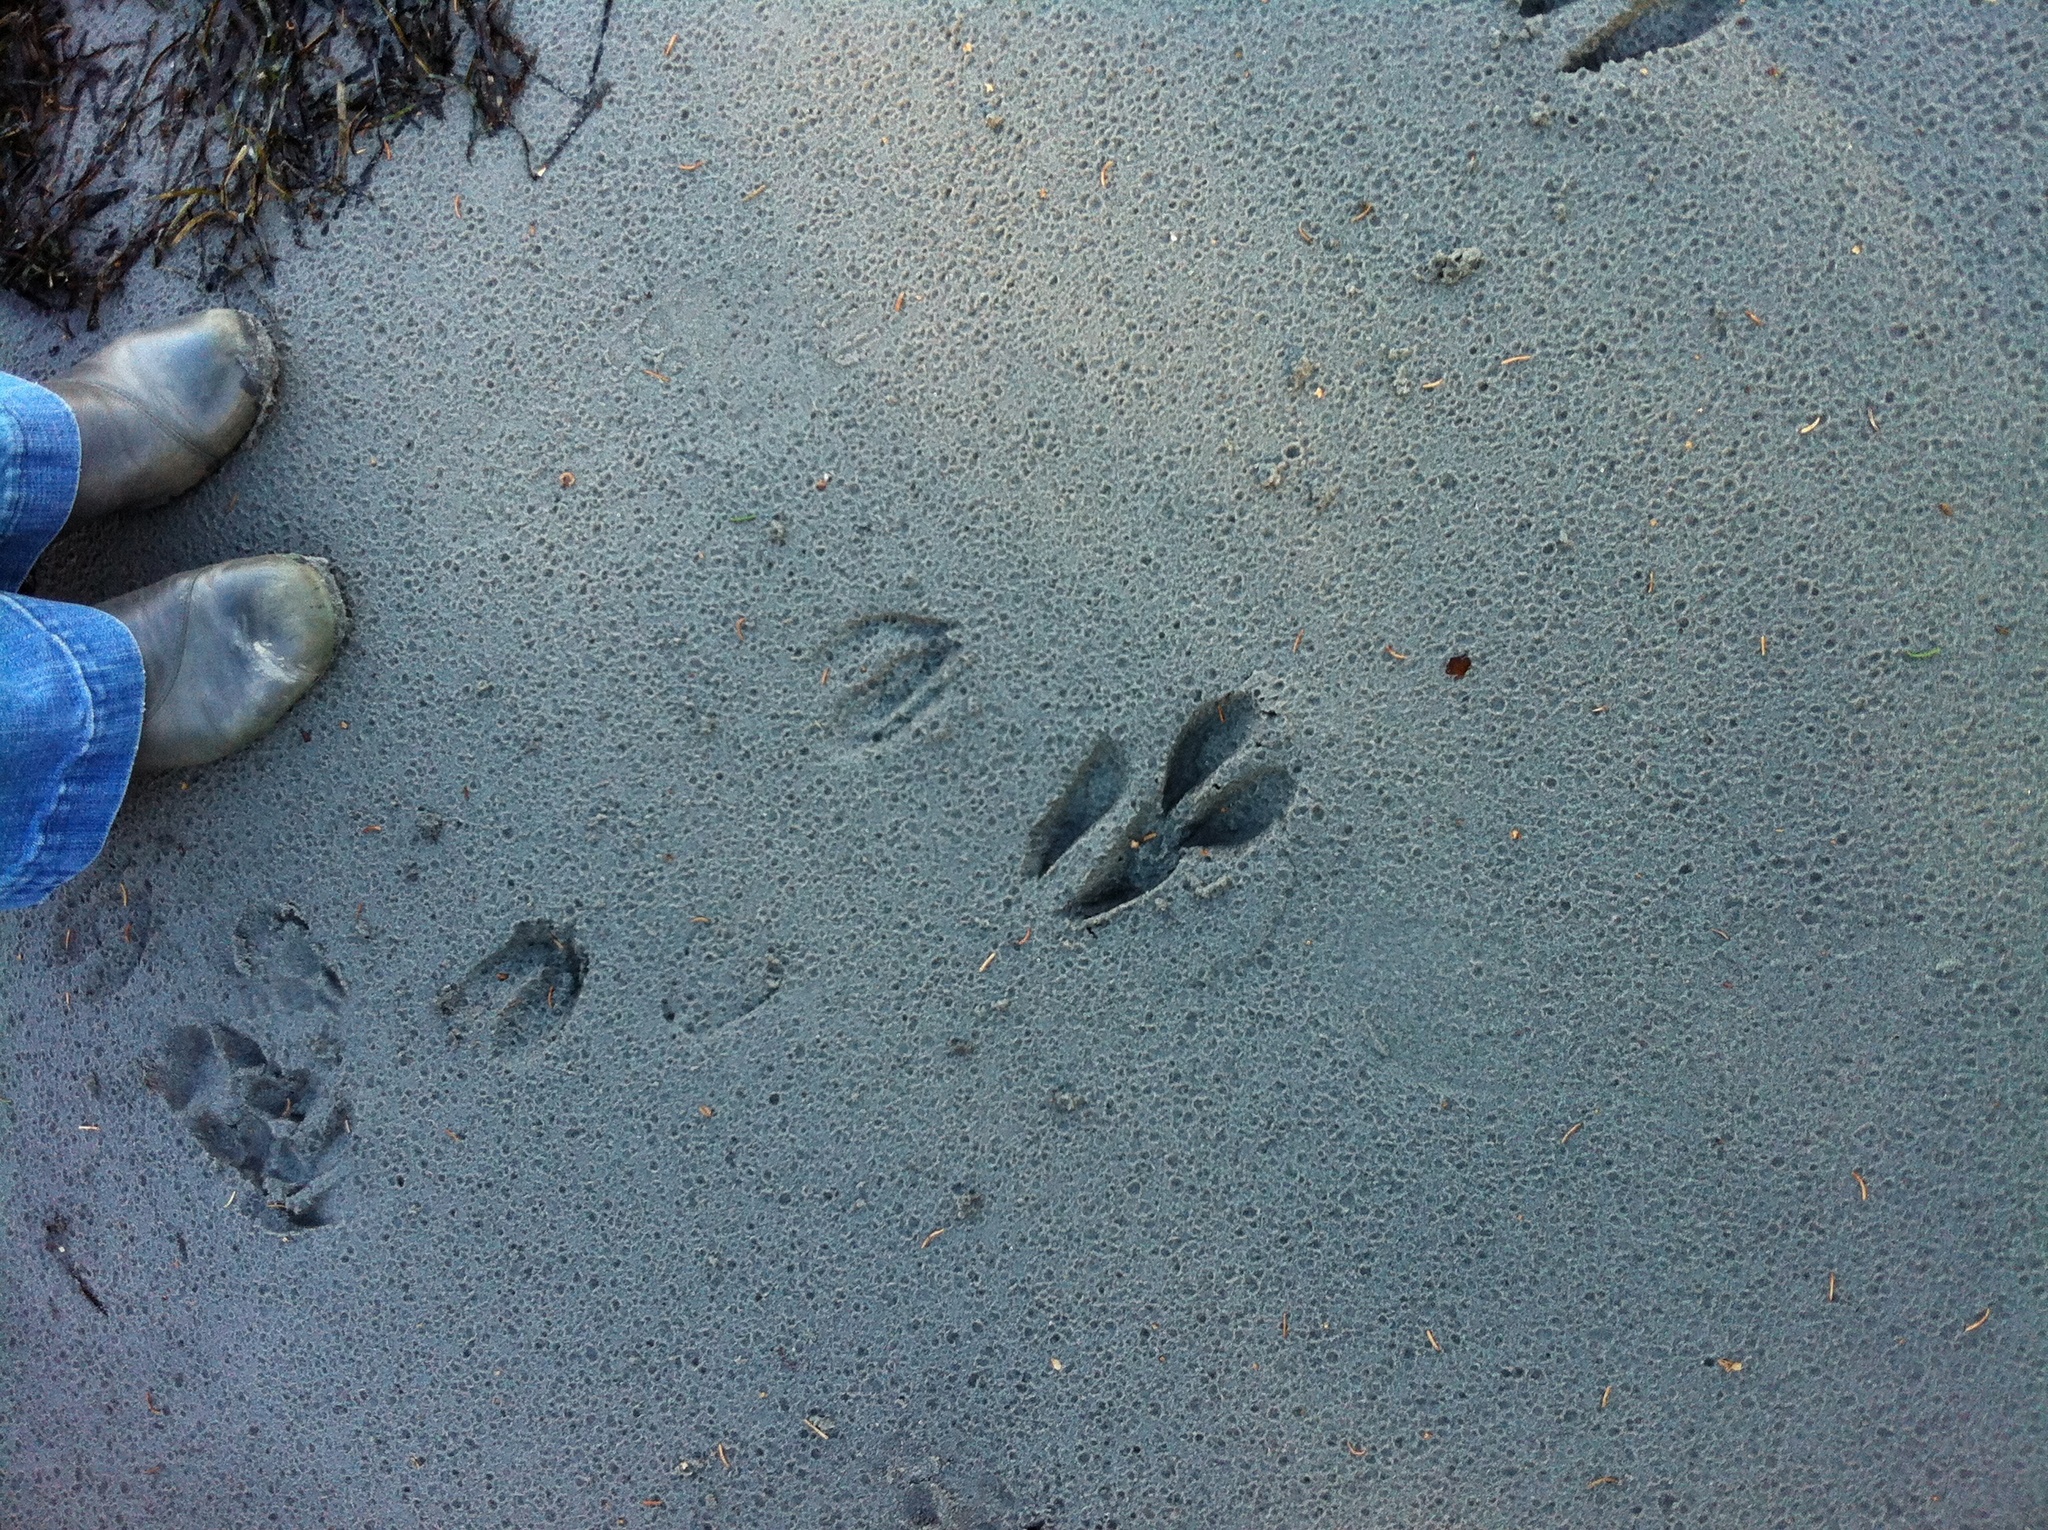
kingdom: Animalia
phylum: Chordata
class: Mammalia
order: Artiodactyla
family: Cervidae
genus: Odocoileus
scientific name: Odocoileus hemionus
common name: Mule deer
